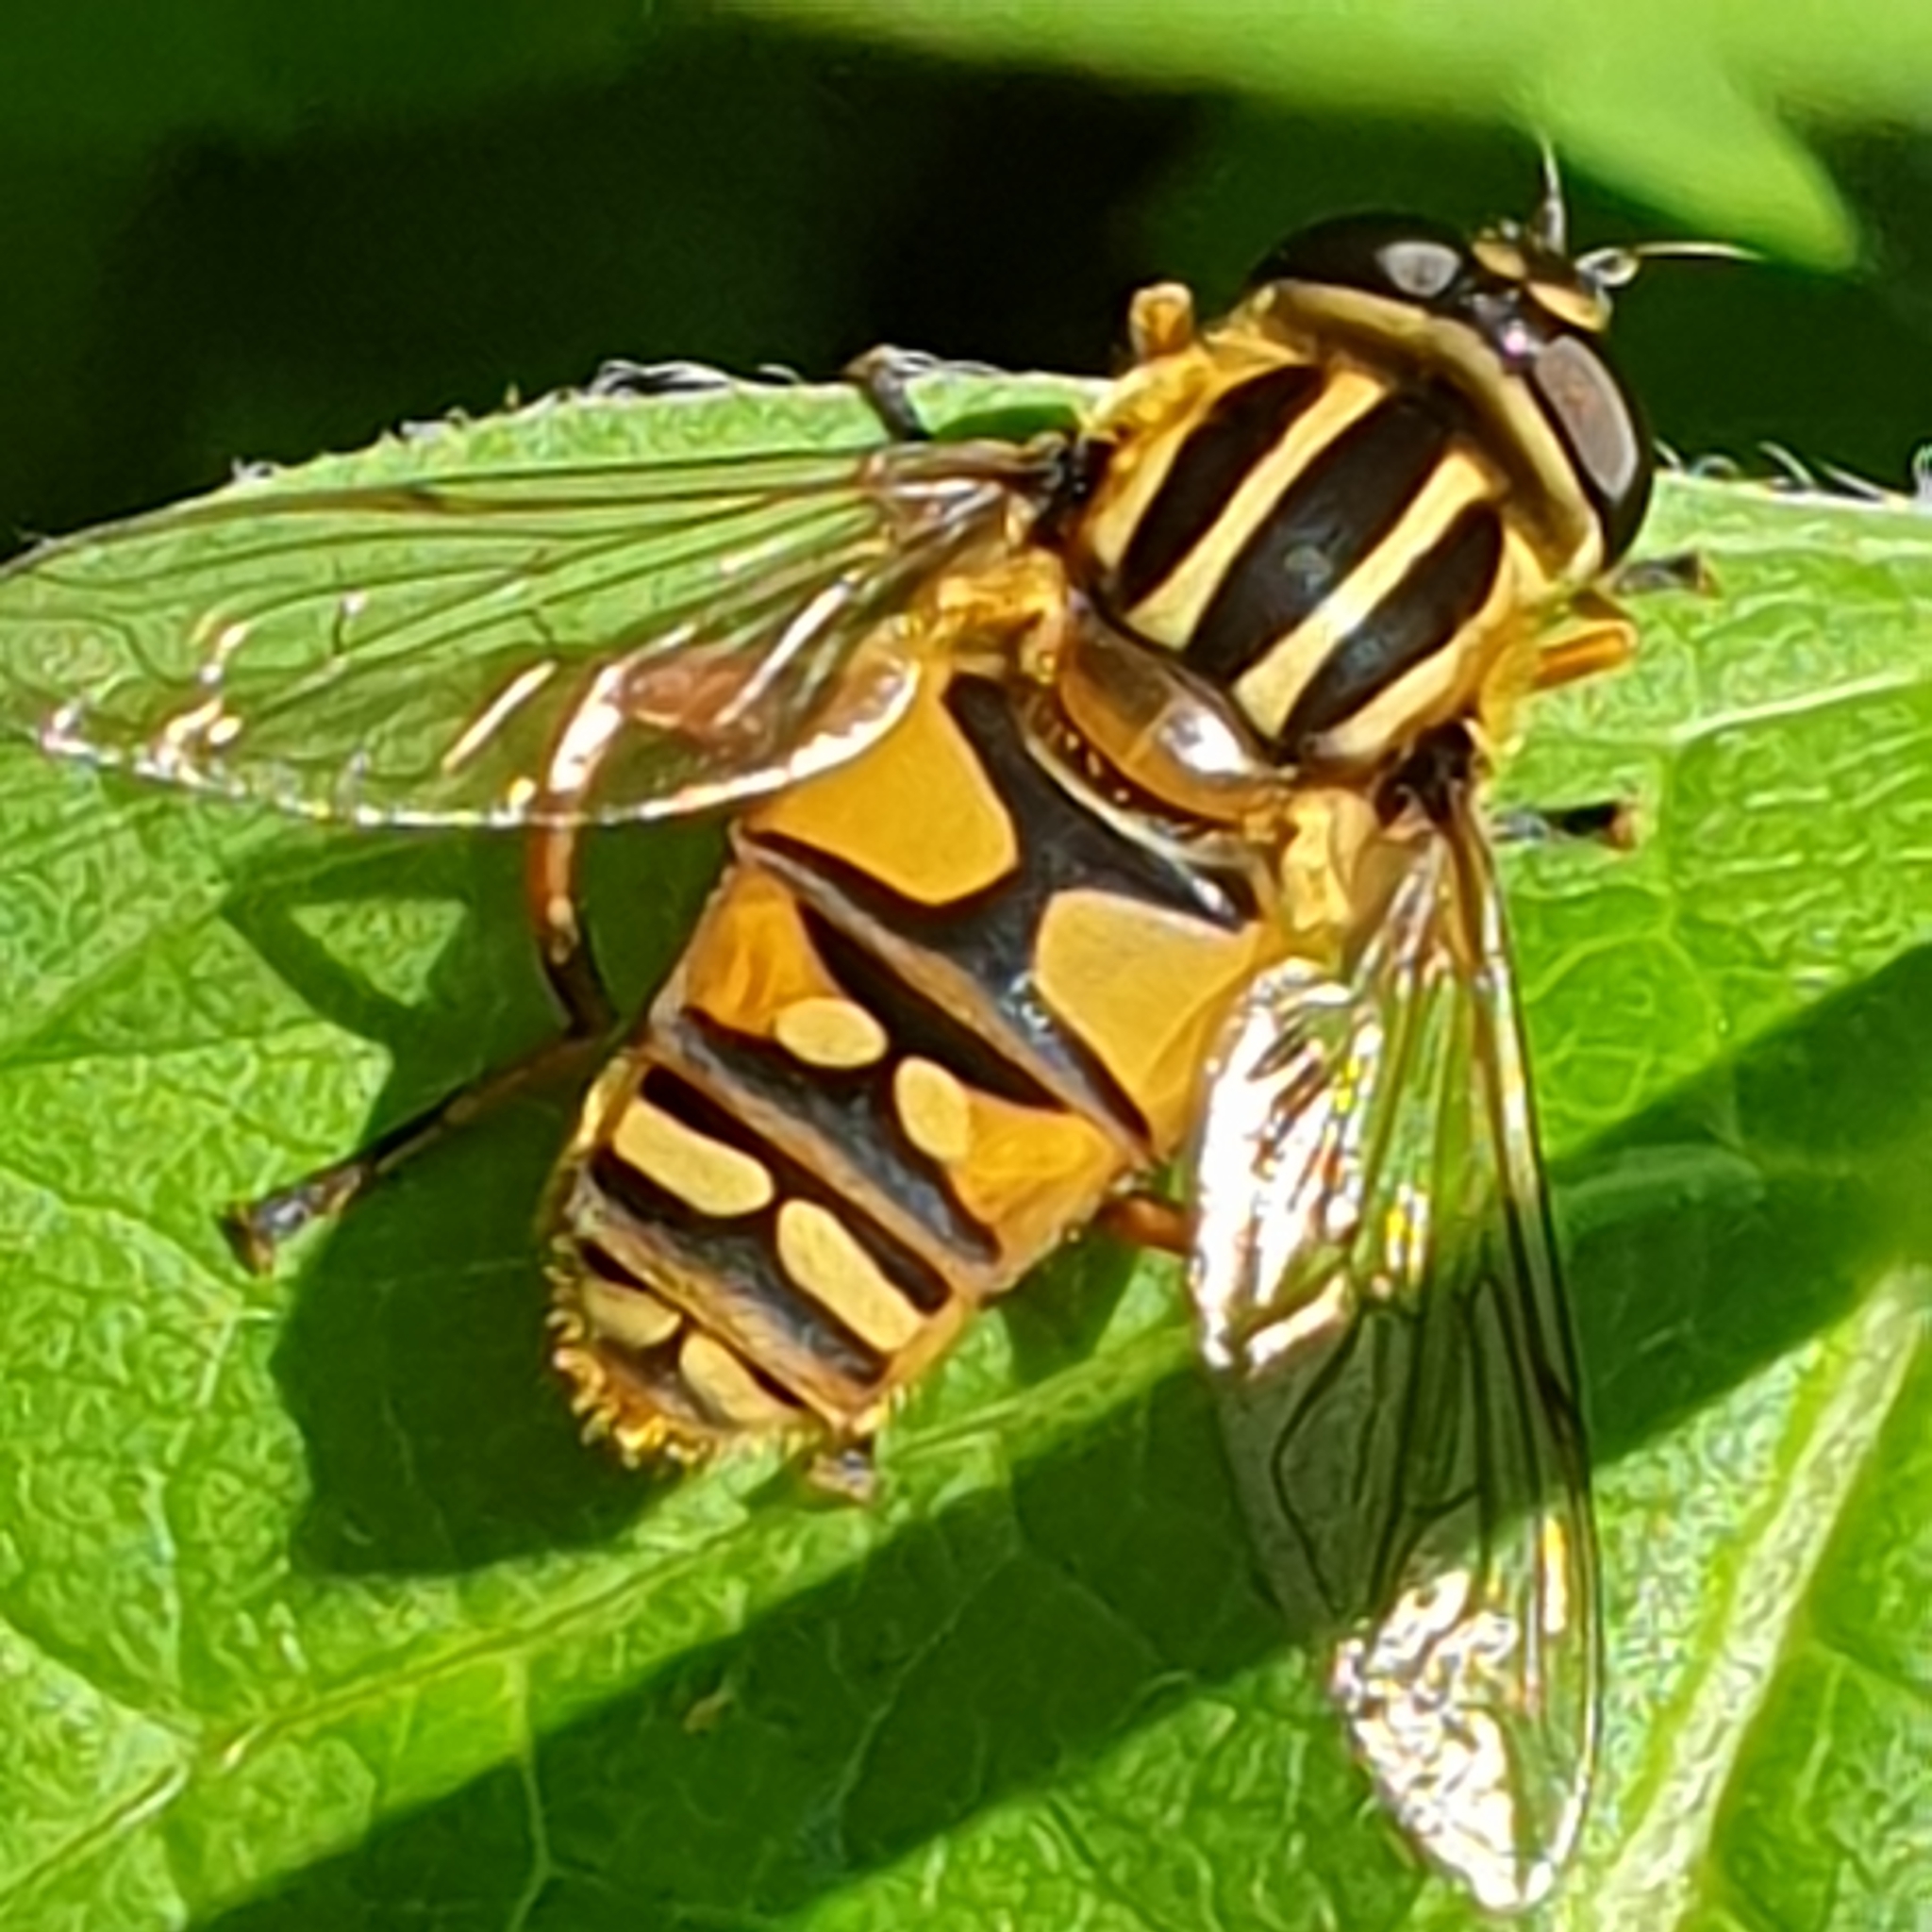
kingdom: Animalia
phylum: Arthropoda
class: Insecta
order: Diptera
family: Syrphidae
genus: Helophilus
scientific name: Helophilus pendulus
